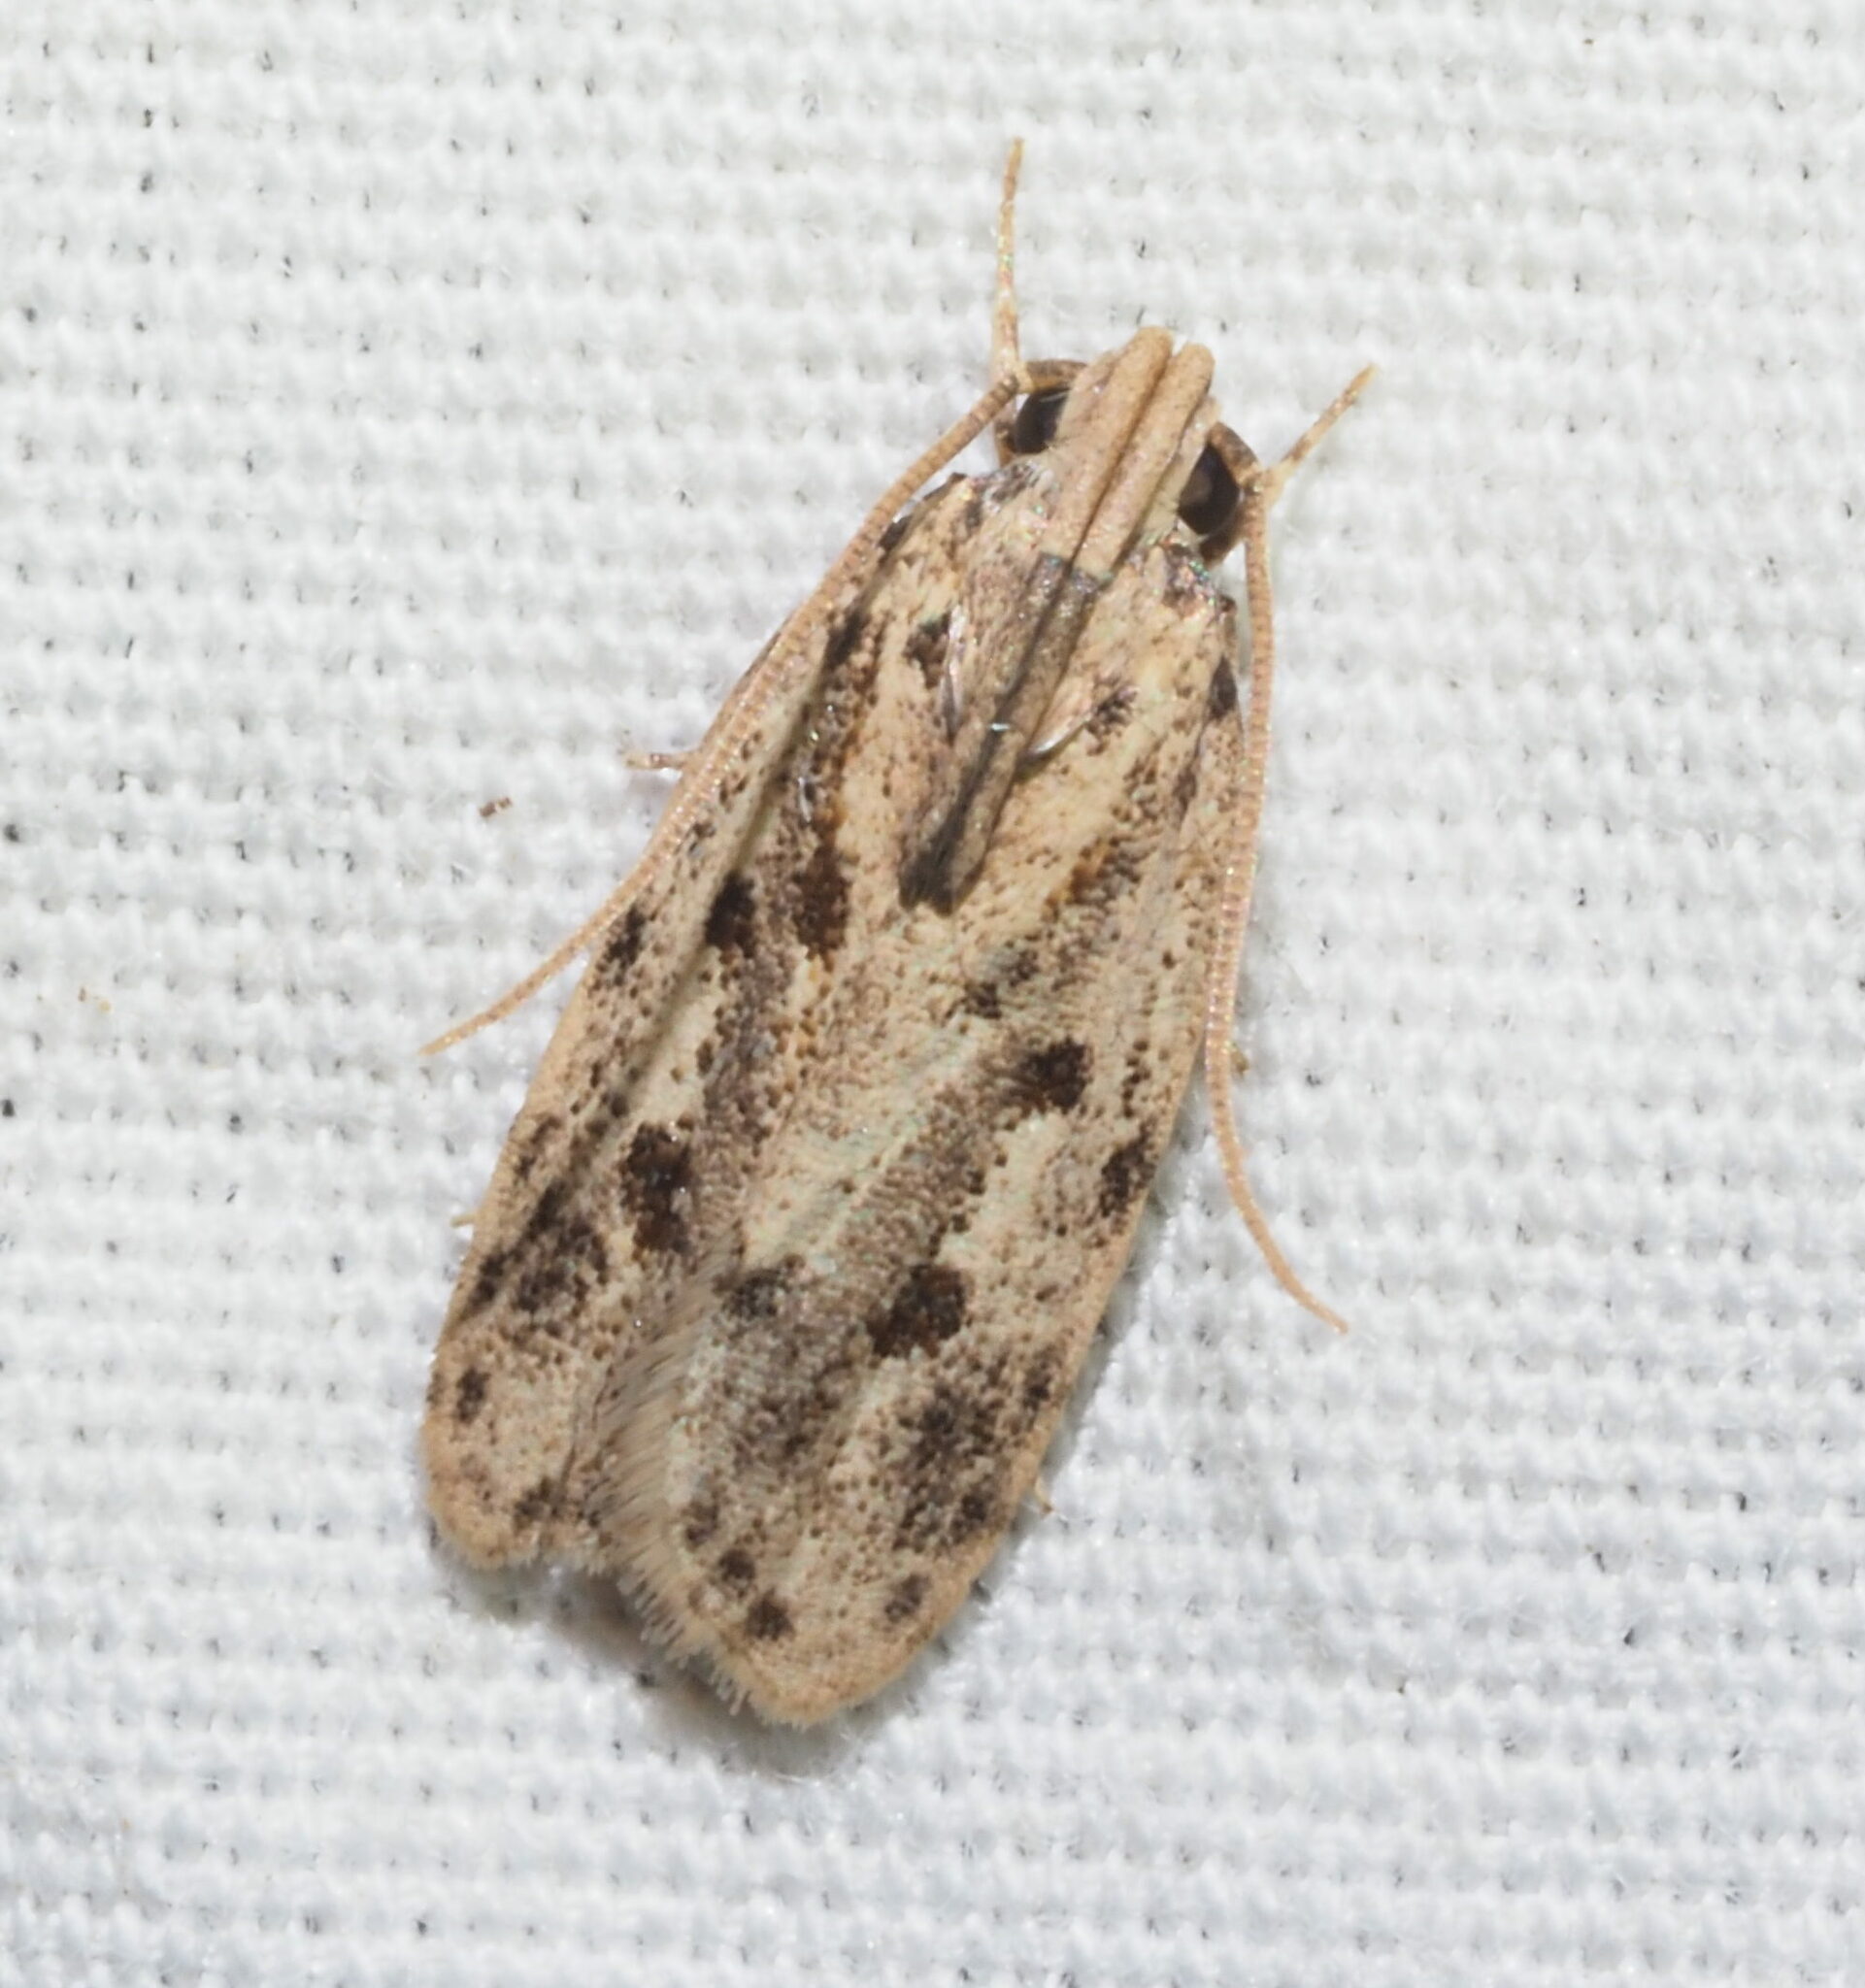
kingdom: Animalia
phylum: Arthropoda
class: Insecta
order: Lepidoptera
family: Autostichidae
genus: Stoeberhinus
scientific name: Stoeberhinus testaceus
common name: Moth
